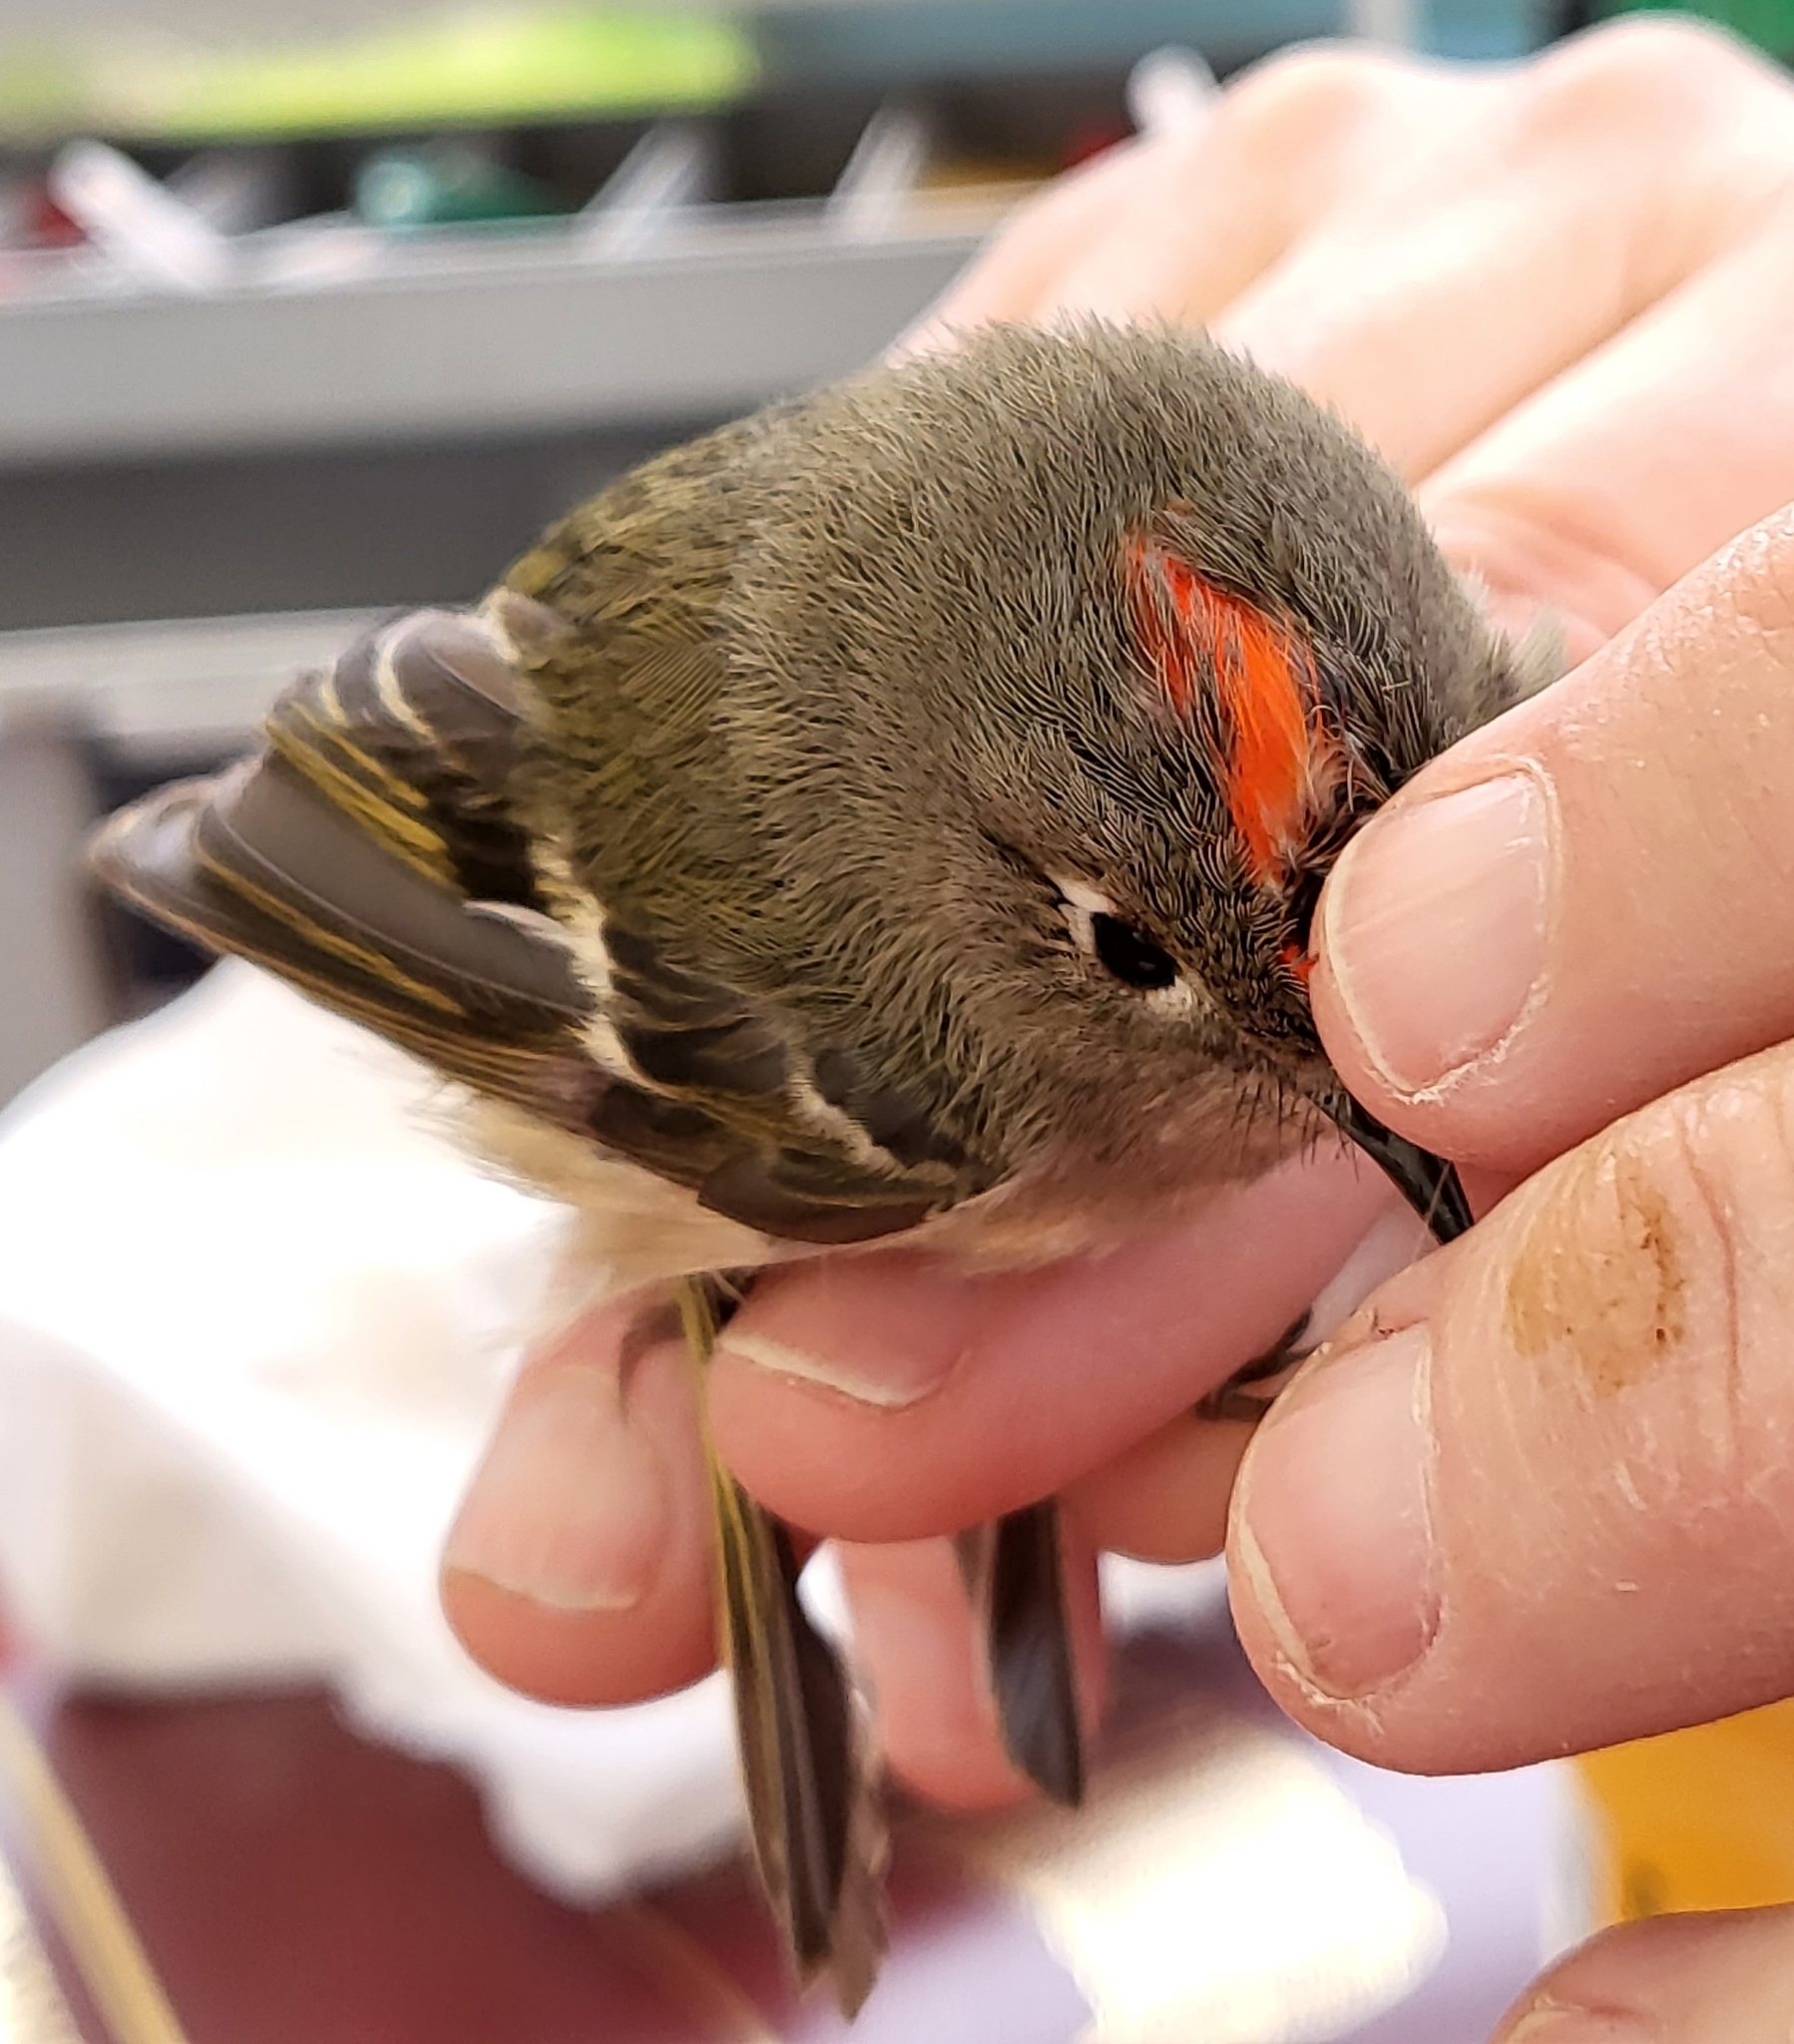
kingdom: Animalia
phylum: Chordata
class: Aves
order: Passeriformes
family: Regulidae
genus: Regulus
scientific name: Regulus calendula
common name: Ruby-crowned kinglet
